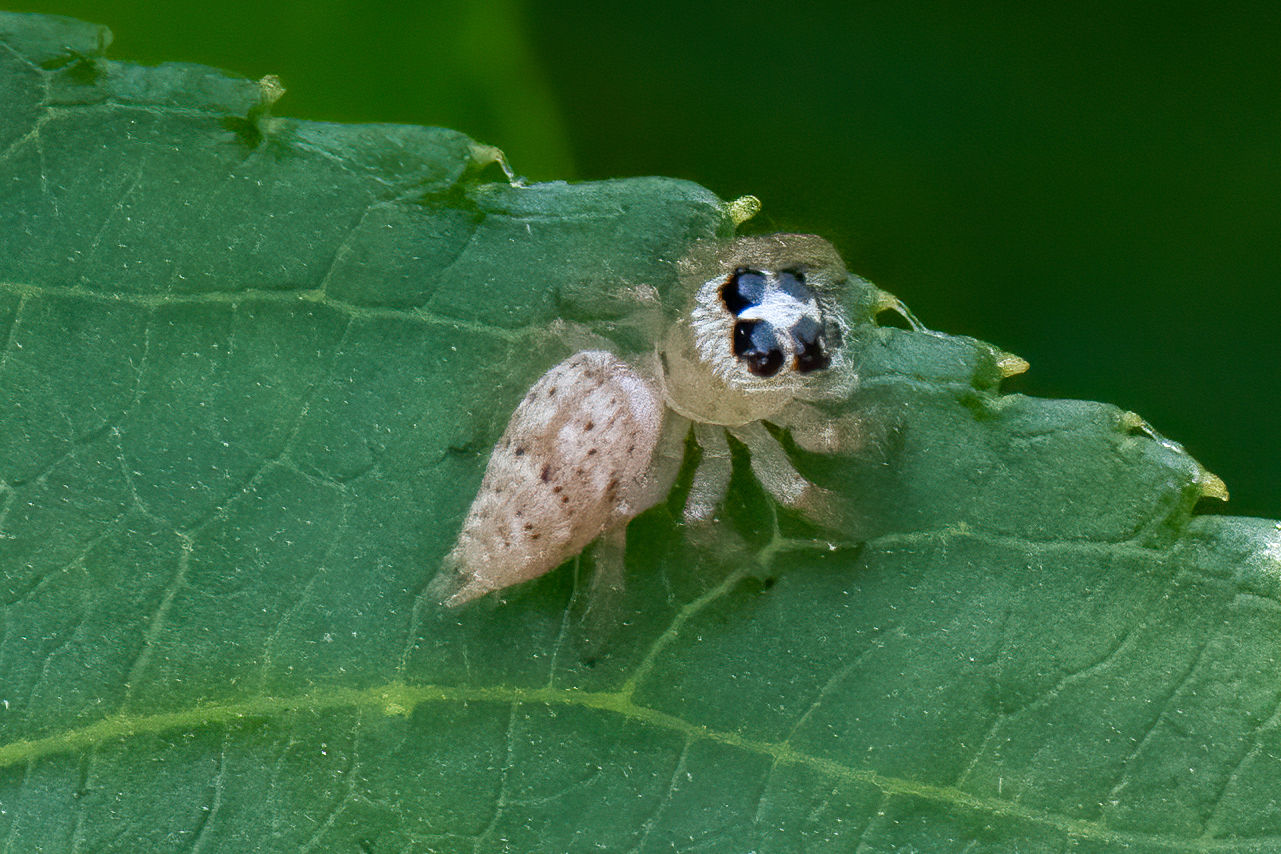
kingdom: Animalia
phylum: Arthropoda
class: Arachnida
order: Araneae
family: Salticidae
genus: Colonus
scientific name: Colonus hesperus
